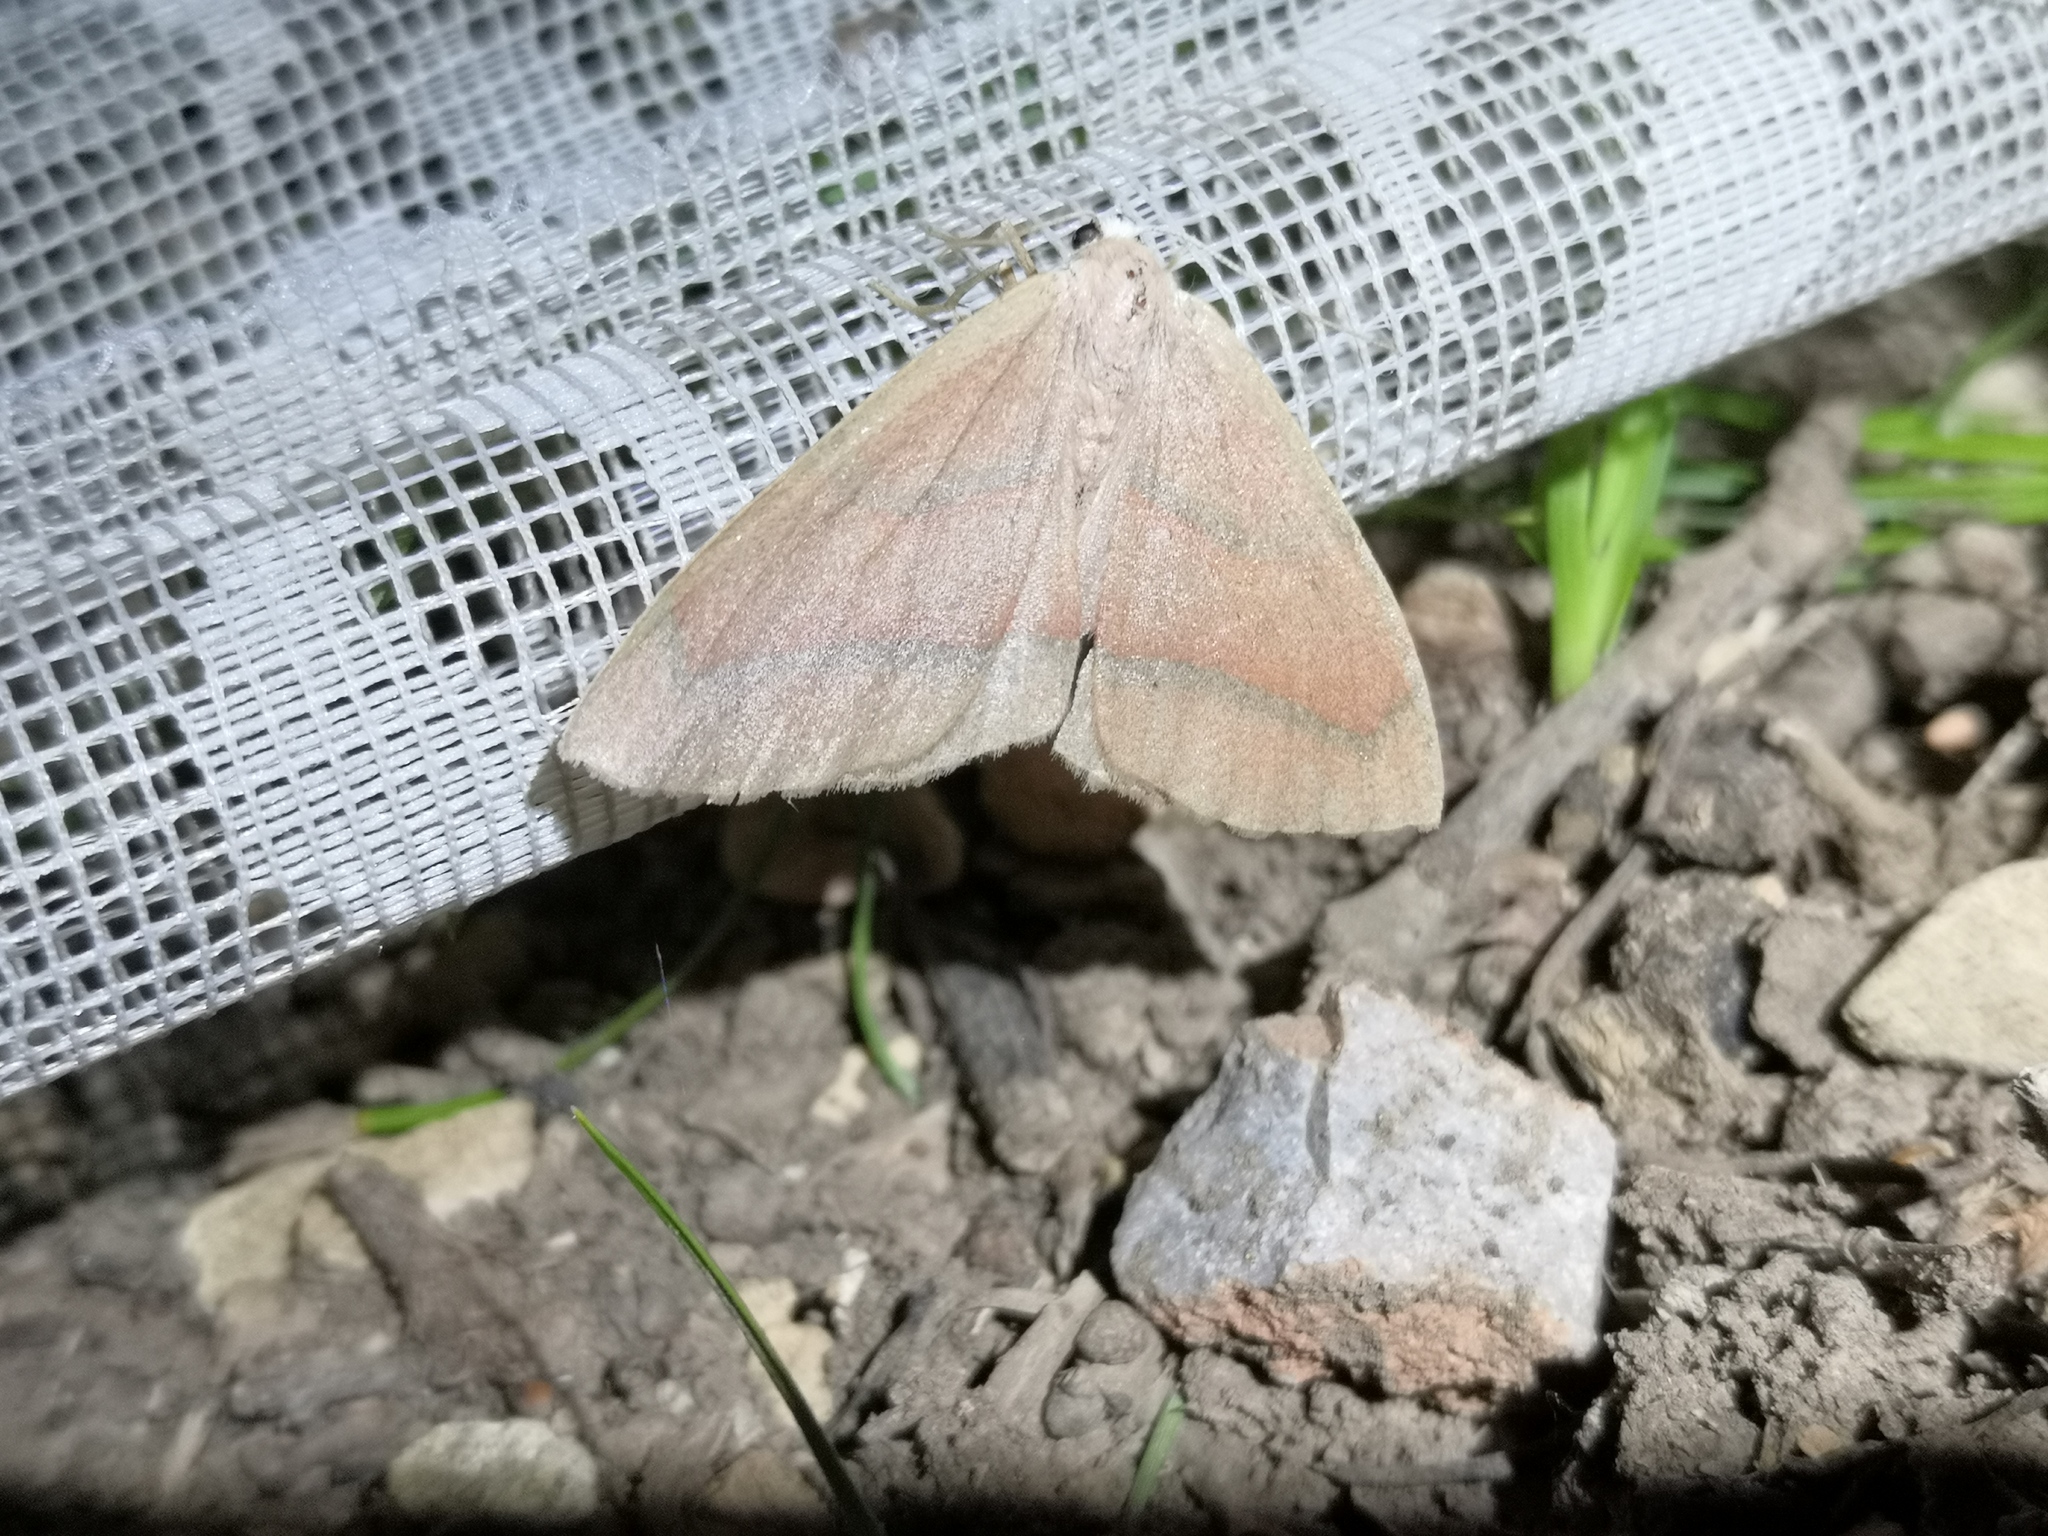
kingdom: Animalia
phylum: Arthropoda
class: Insecta
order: Lepidoptera
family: Geometridae
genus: Hylaea
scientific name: Hylaea fasciaria
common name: Barred red
